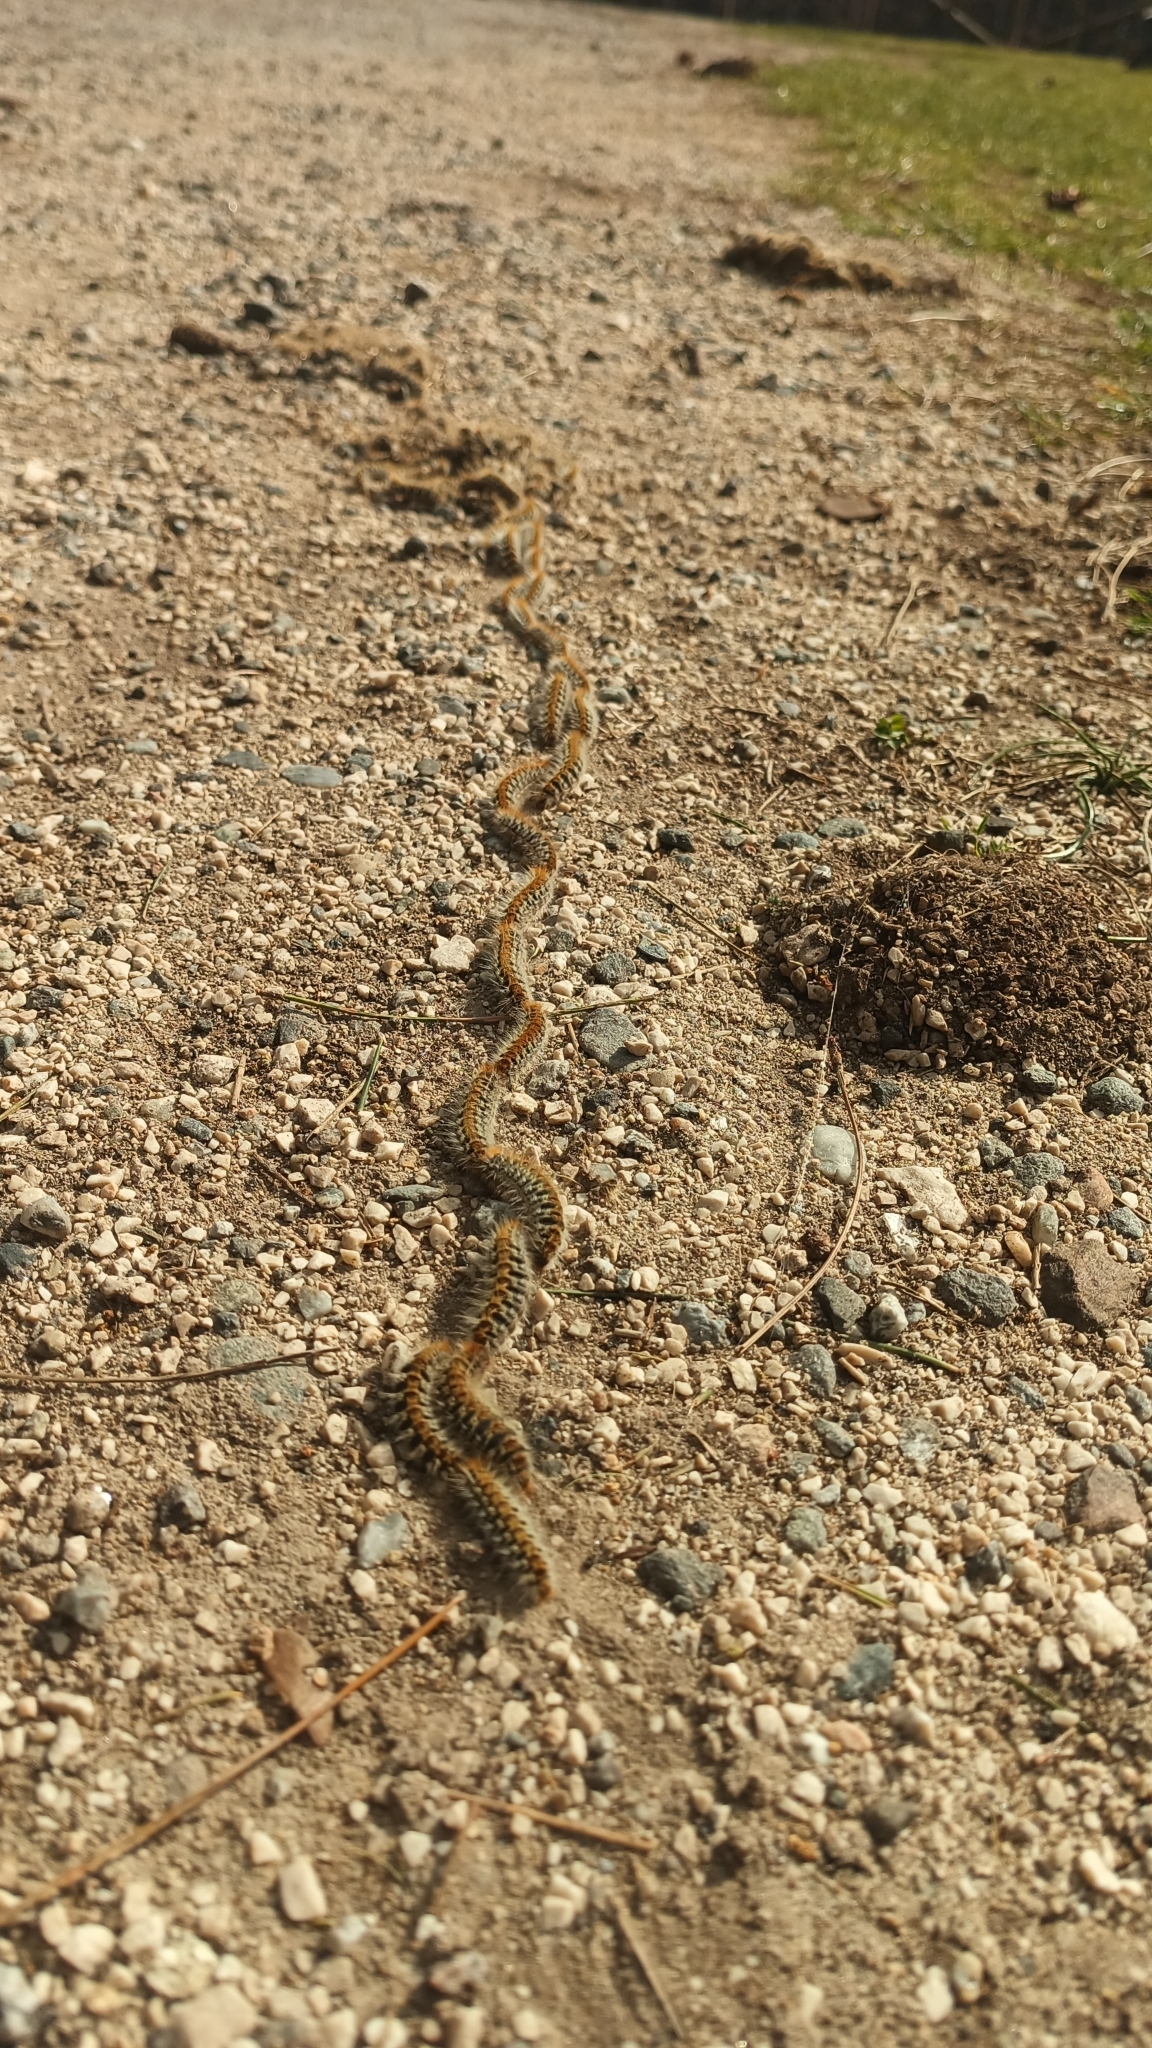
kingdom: Animalia
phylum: Arthropoda
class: Insecta
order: Lepidoptera
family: Notodontidae
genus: Thaumetopoea
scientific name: Thaumetopoea pityocampa
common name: Pine processionary
